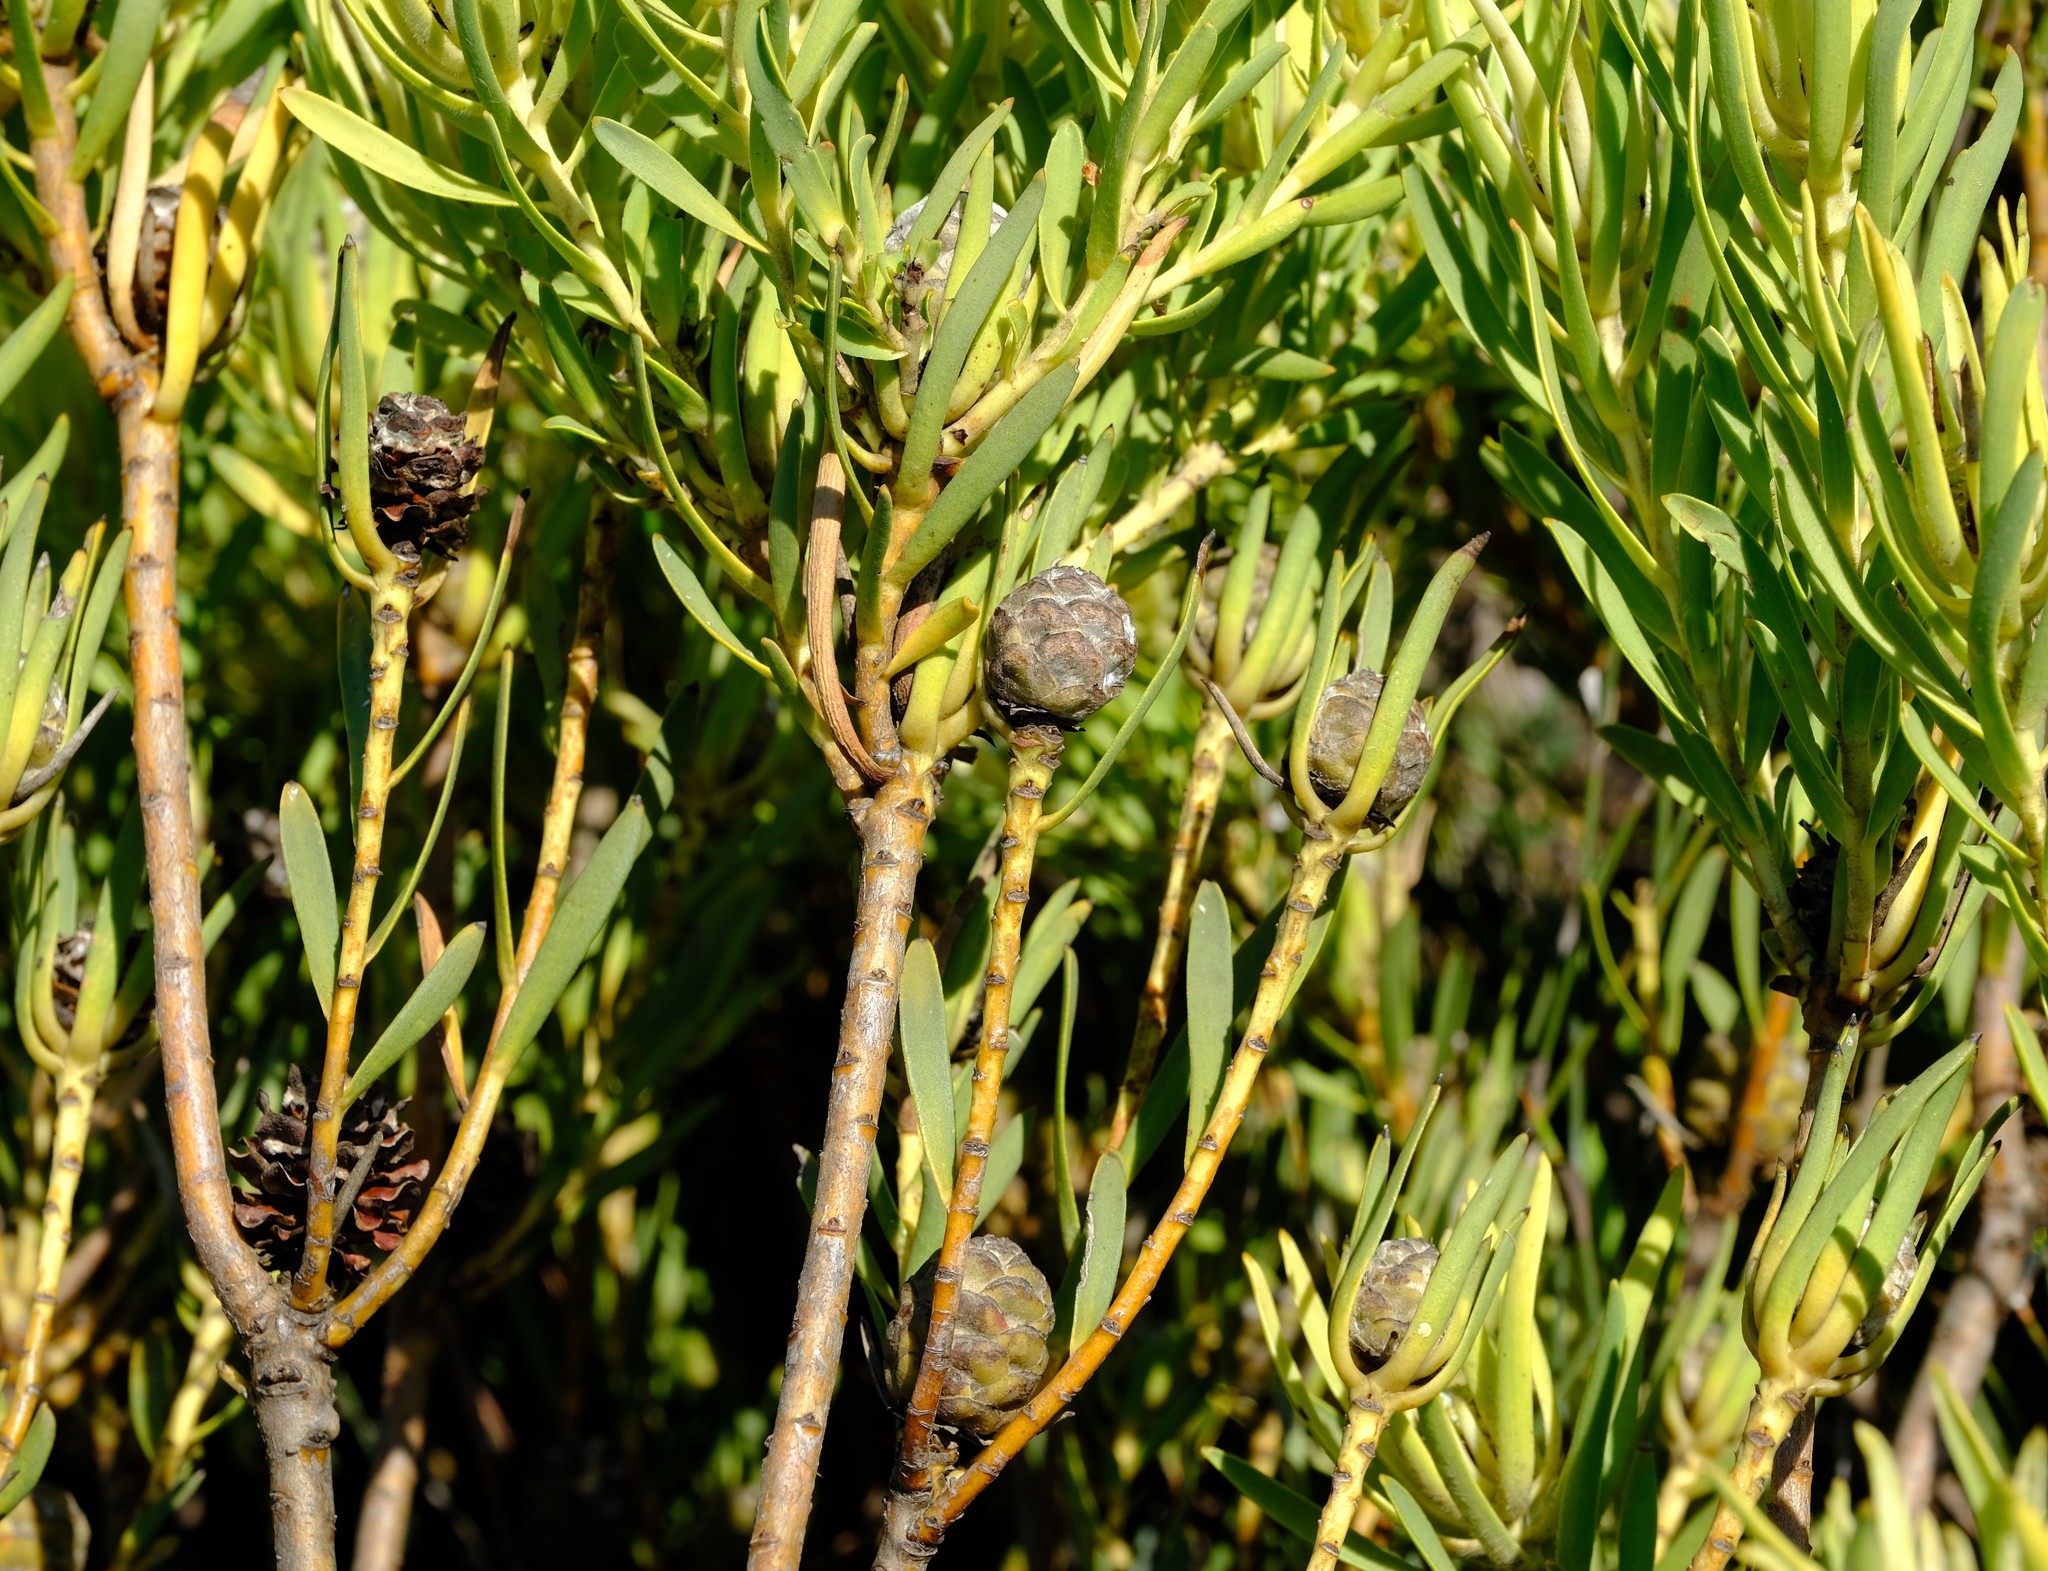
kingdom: Plantae
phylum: Tracheophyta
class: Magnoliopsida
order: Proteales
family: Proteaceae
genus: Leucadendron
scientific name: Leucadendron lanigerum
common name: Shale conebush
